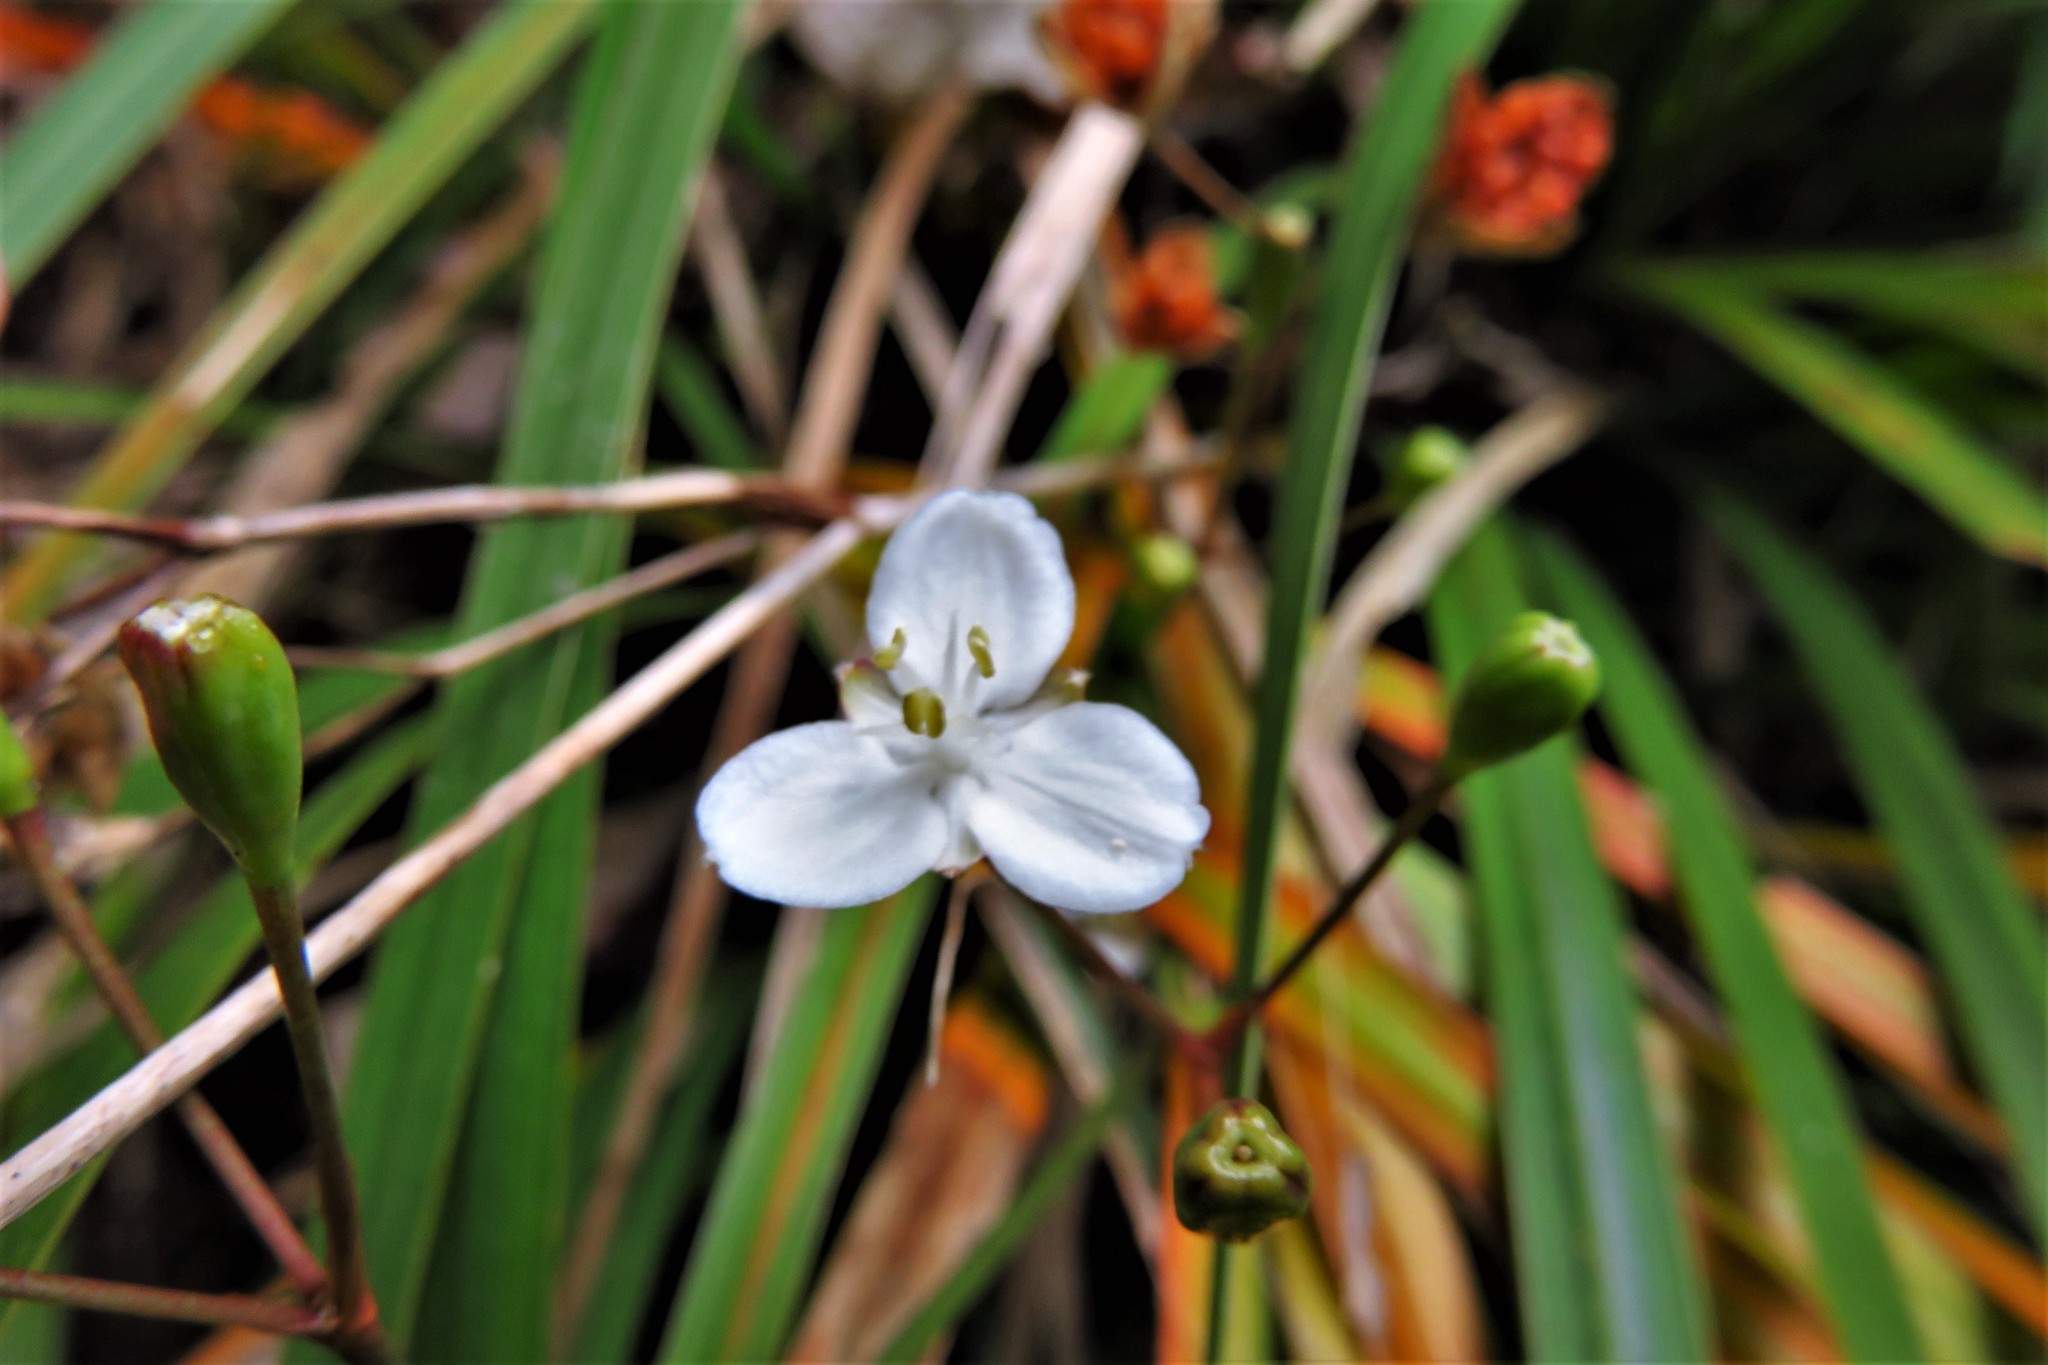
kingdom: Plantae
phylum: Tracheophyta
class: Liliopsida
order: Asparagales
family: Iridaceae
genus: Libertia
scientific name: Libertia ixioides
